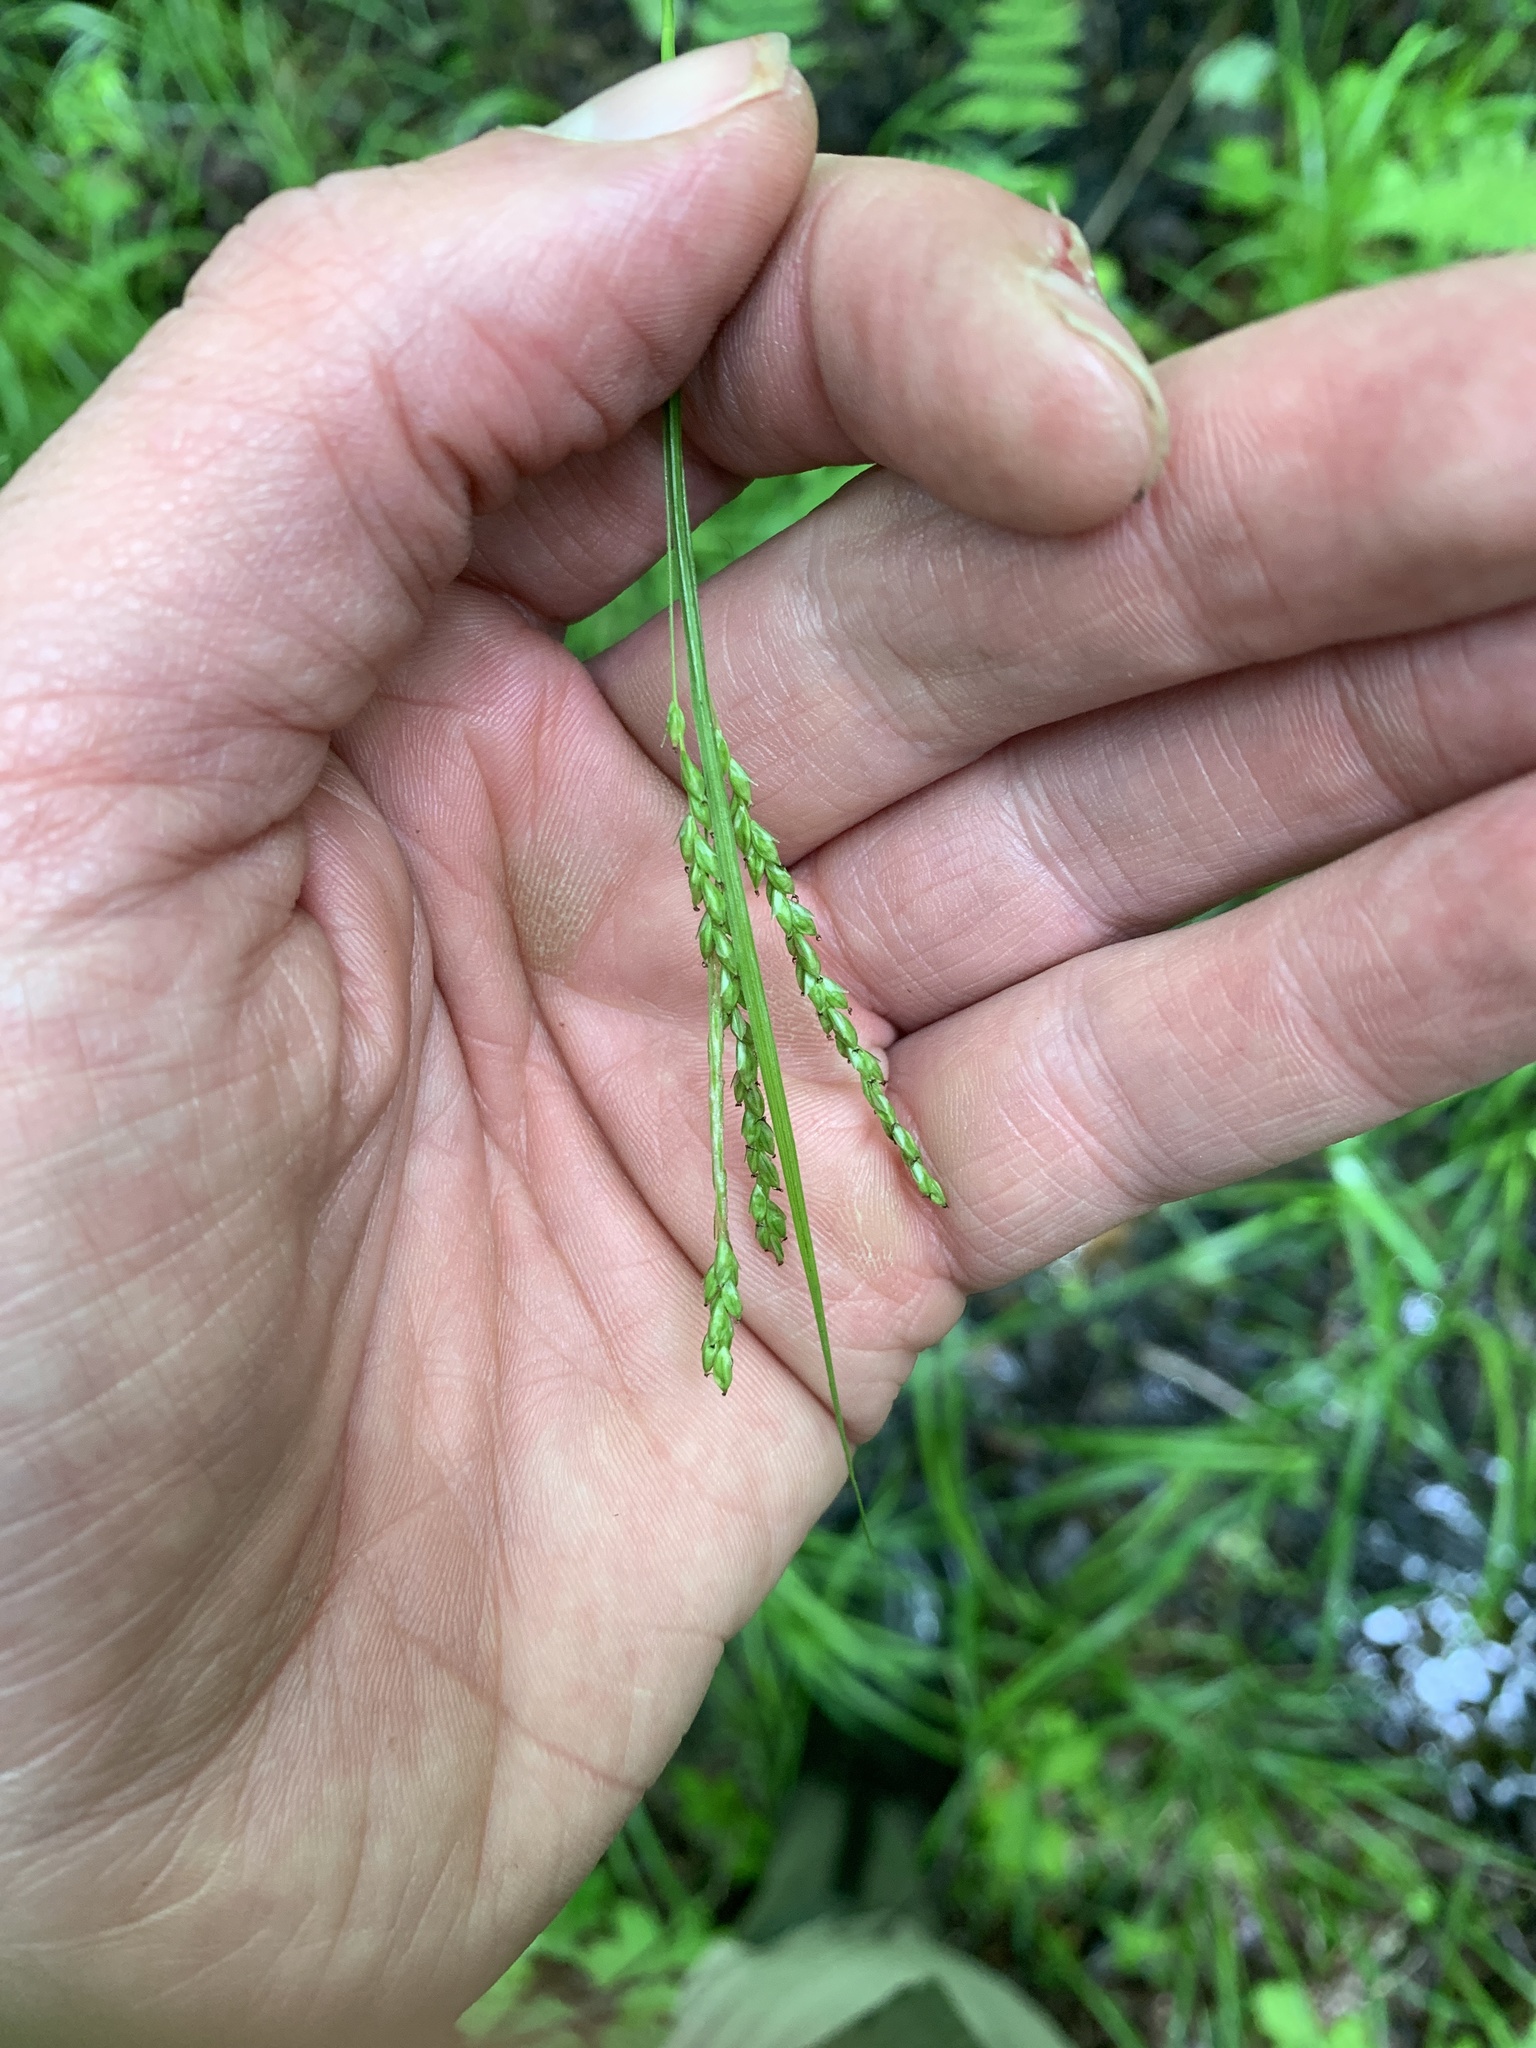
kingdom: Plantae
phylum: Tracheophyta
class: Liliopsida
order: Poales
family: Cyperaceae
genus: Carex
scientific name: Carex gracillima
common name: Graceful sedge
